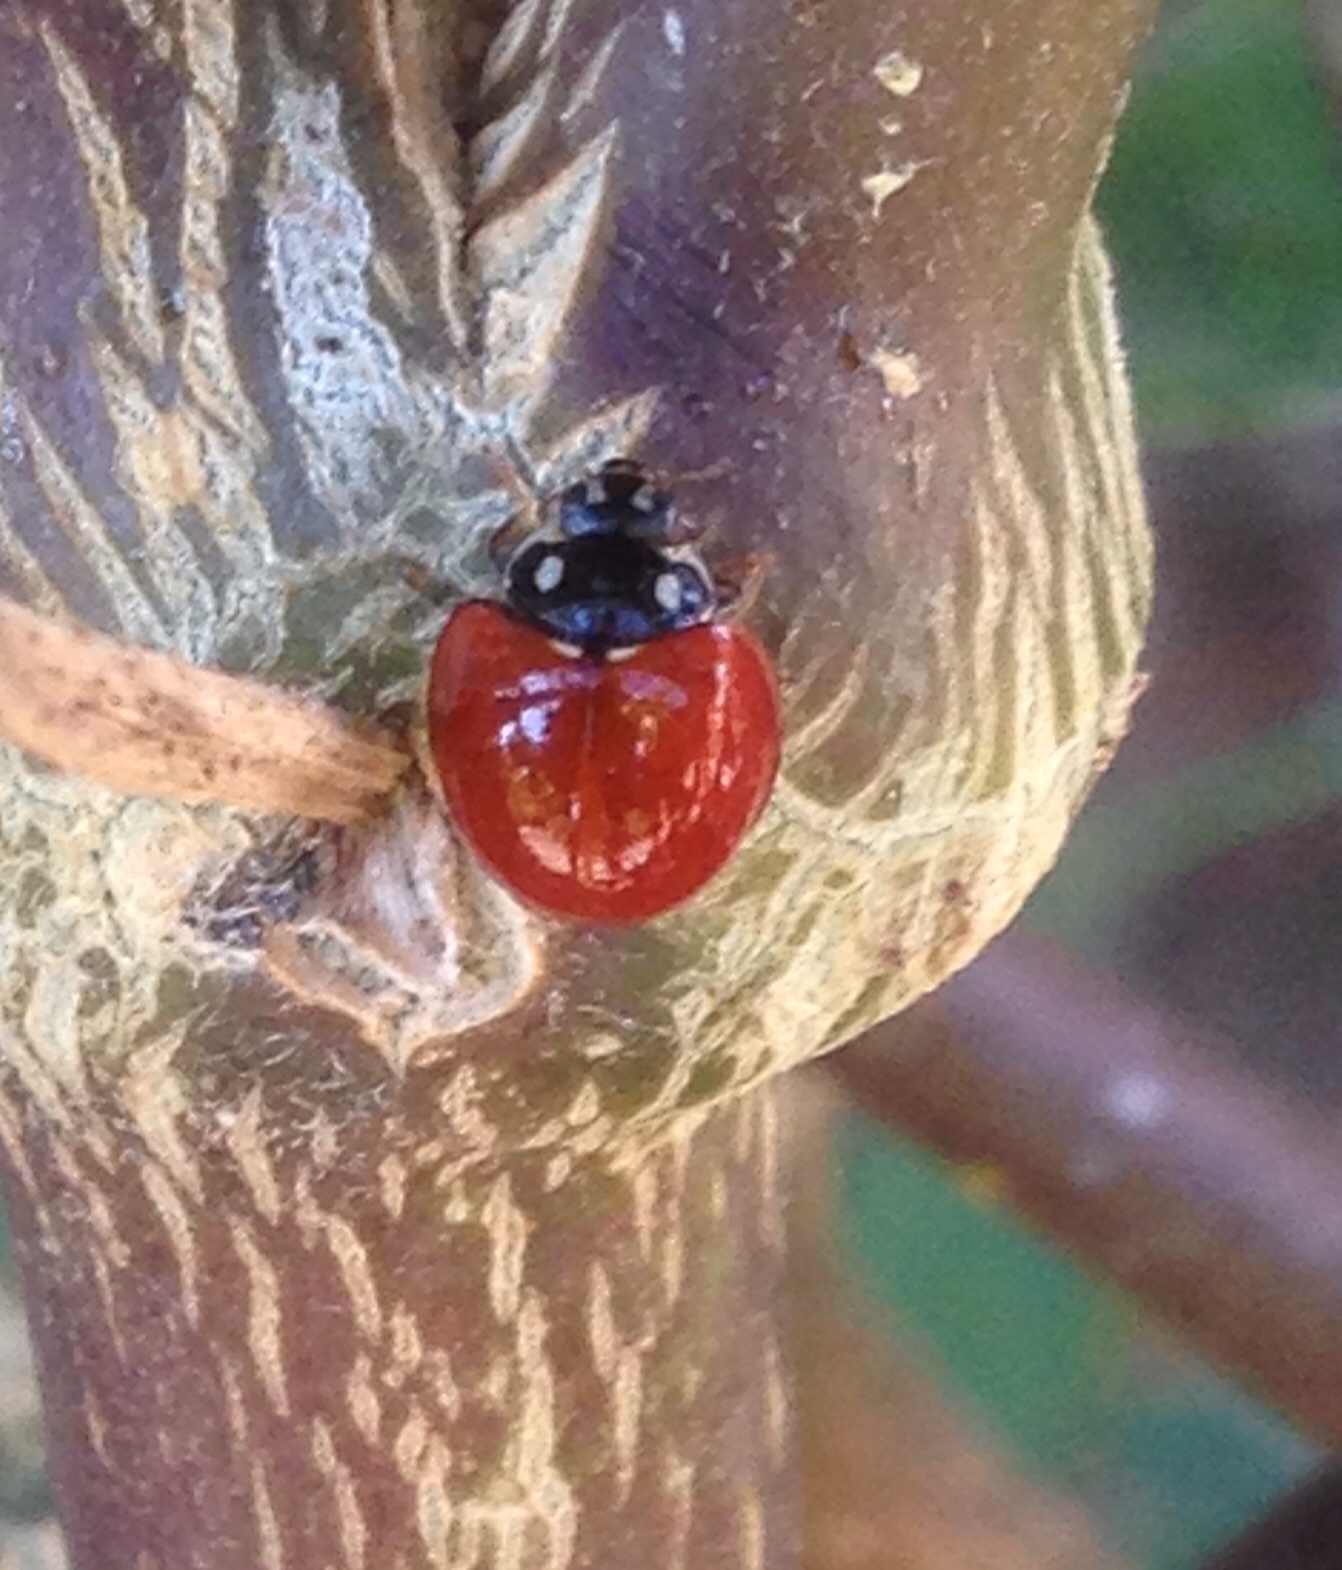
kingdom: Animalia
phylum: Arthropoda
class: Insecta
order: Coleoptera
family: Coccinellidae
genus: Cycloneda
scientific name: Cycloneda sanguinea
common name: Ladybird beetle
